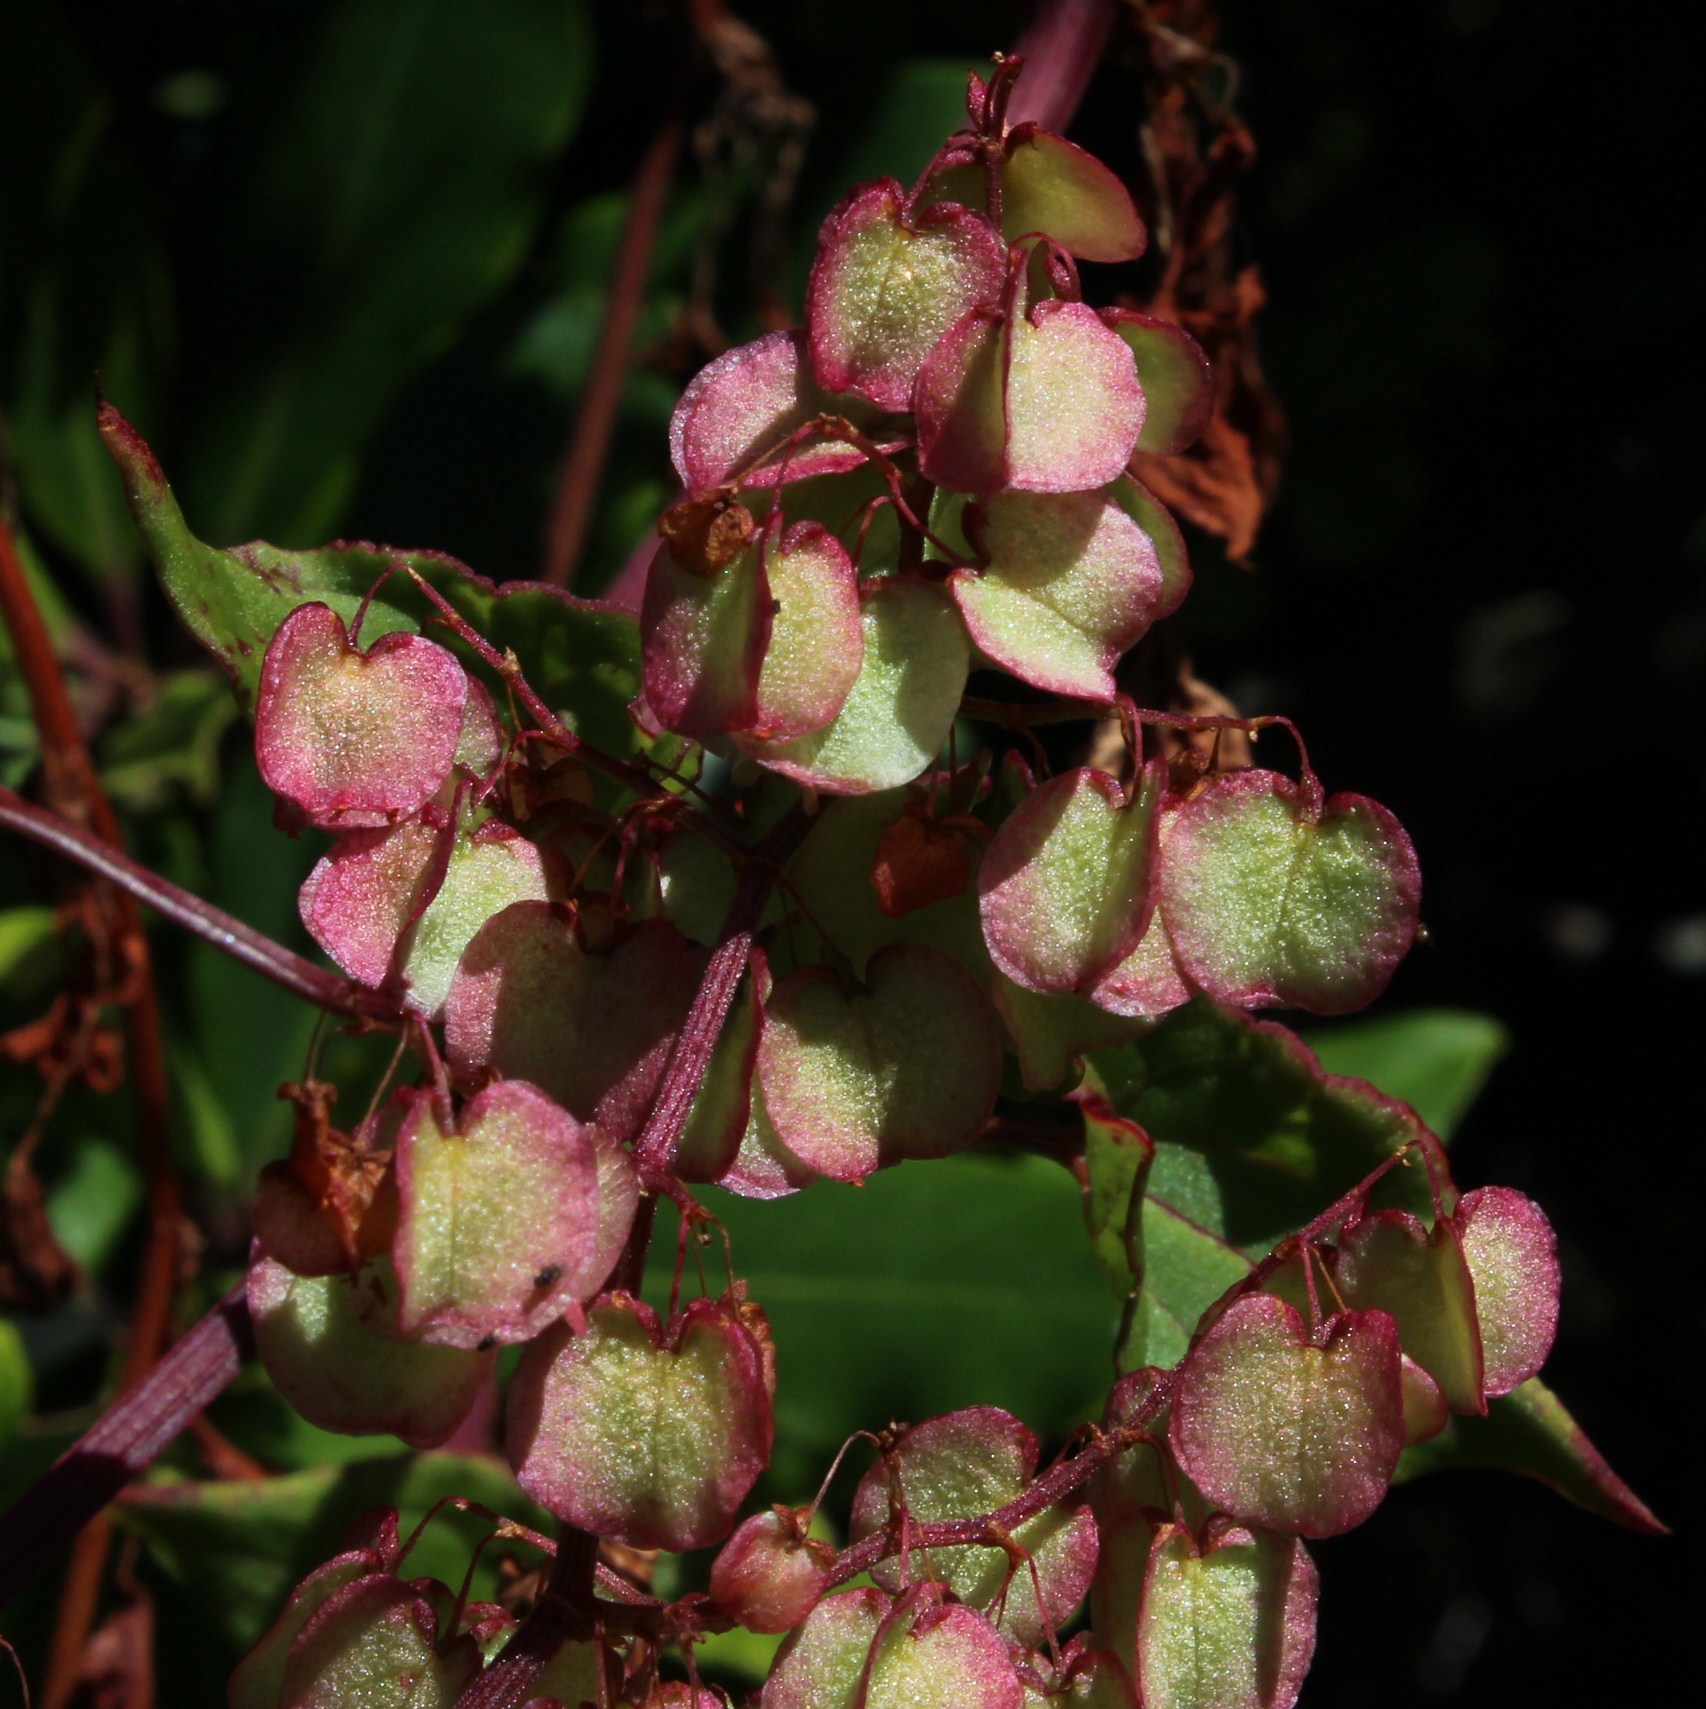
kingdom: Plantae
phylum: Tracheophyta
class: Magnoliopsida
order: Caryophyllales
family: Polygonaceae
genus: Rumex
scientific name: Rumex sagittatus
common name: Climbing dock
